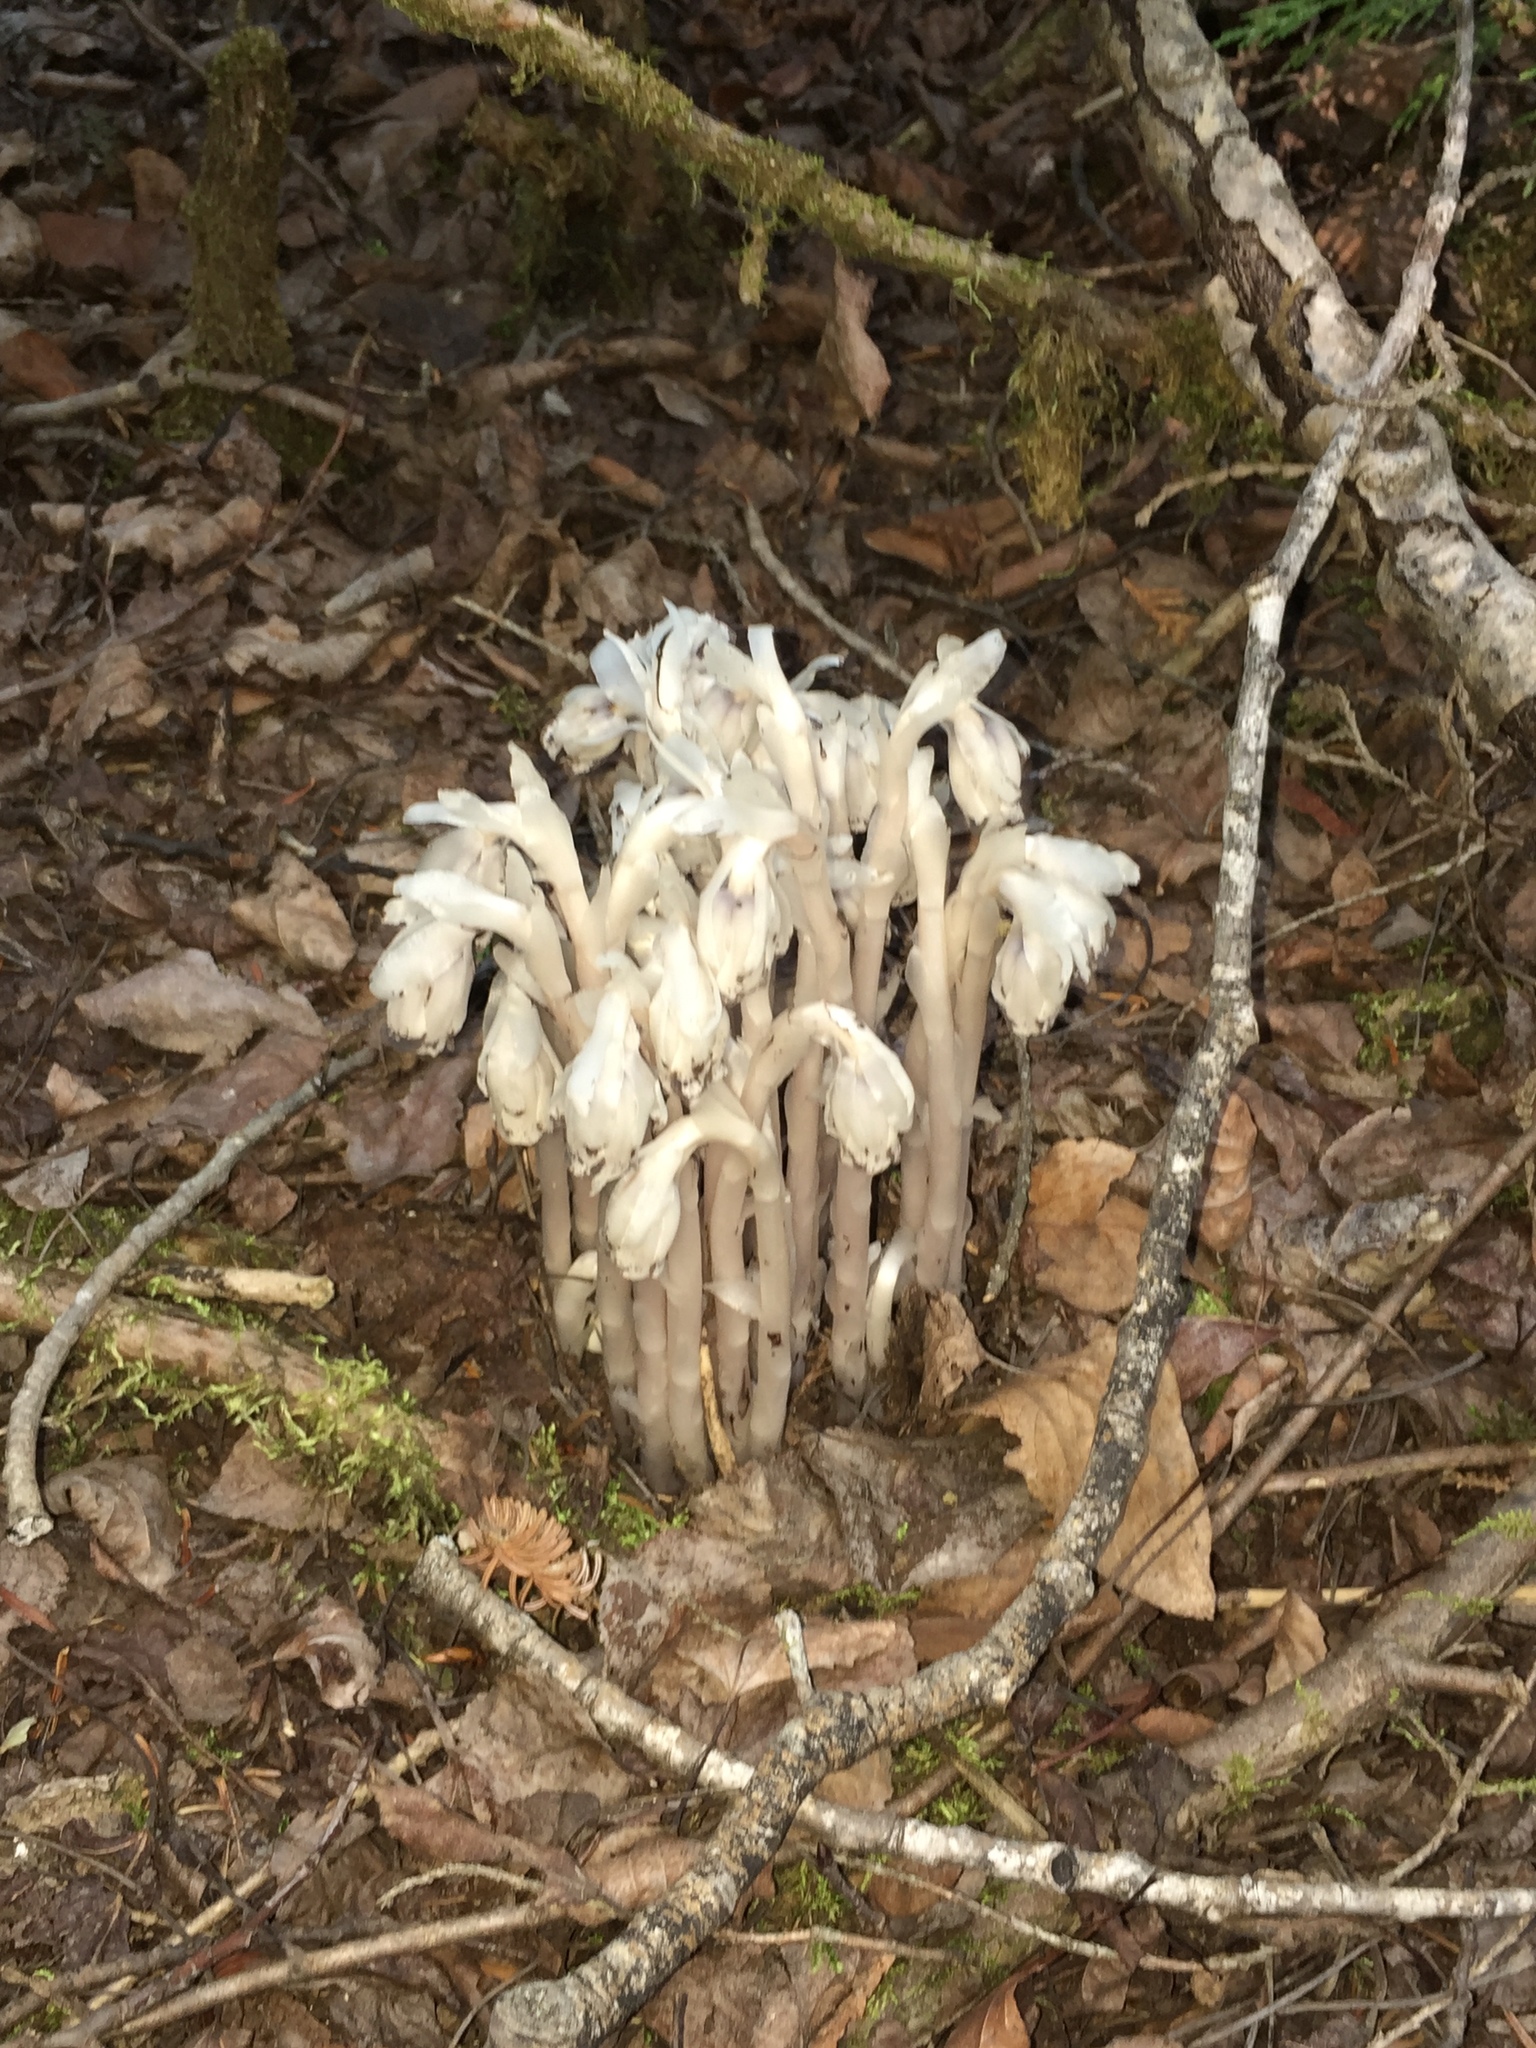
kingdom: Plantae
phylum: Tracheophyta
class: Magnoliopsida
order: Ericales
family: Ericaceae
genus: Monotropa
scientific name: Monotropa uniflora
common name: Convulsion root
